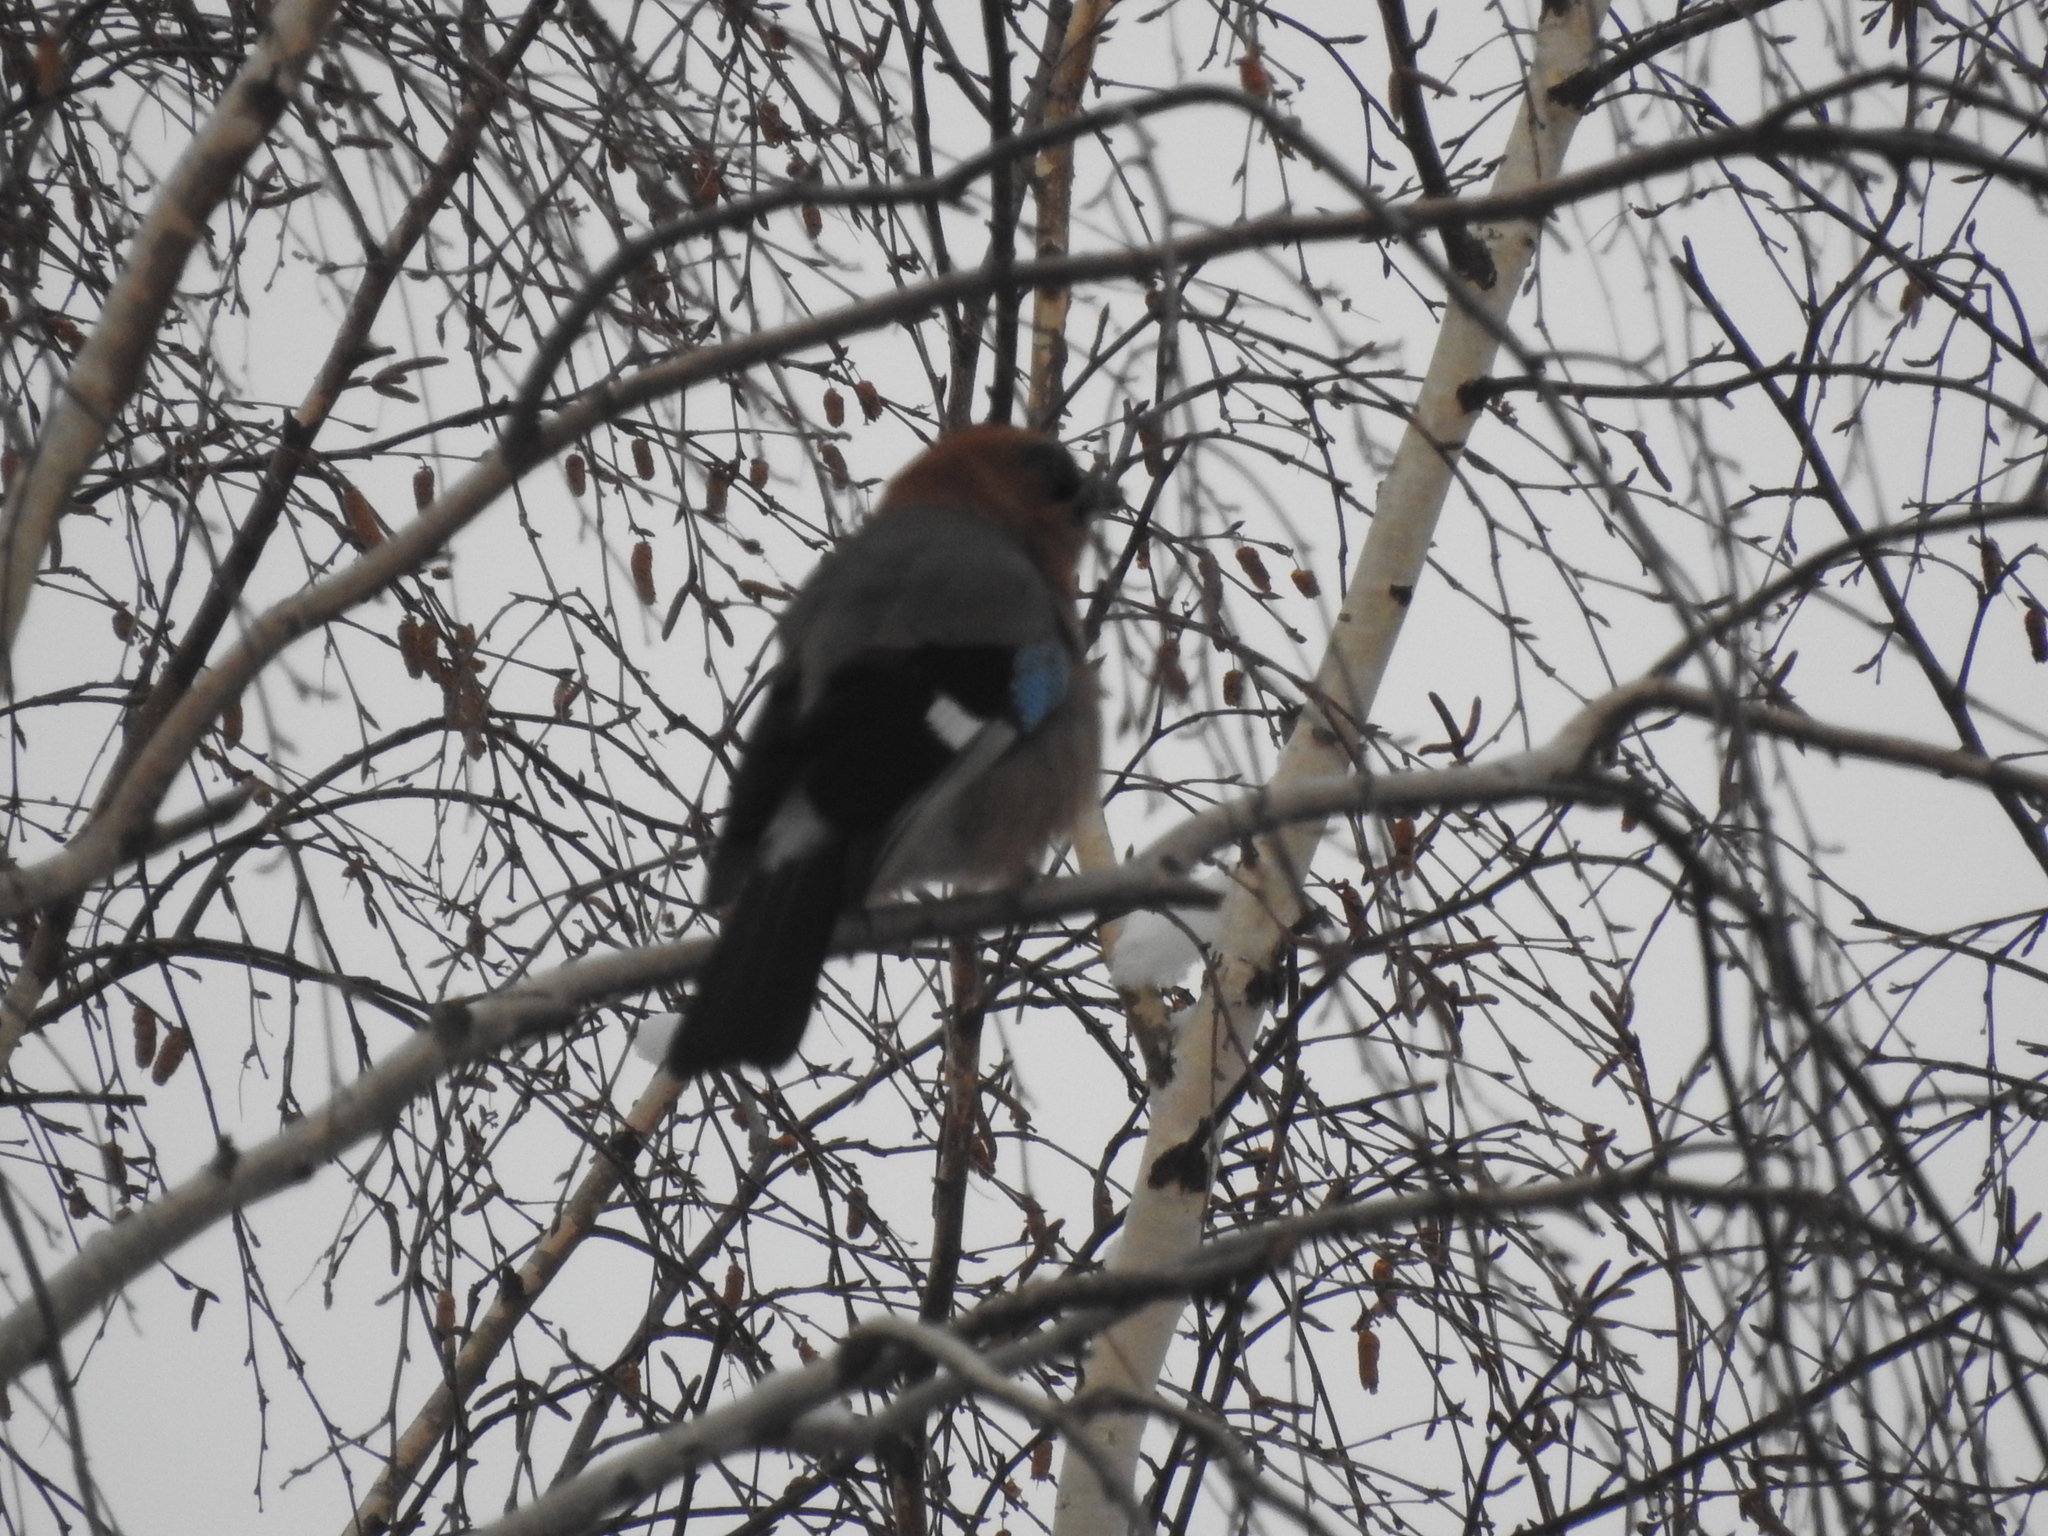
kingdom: Animalia
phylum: Chordata
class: Aves
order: Passeriformes
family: Corvidae
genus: Garrulus
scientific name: Garrulus glandarius
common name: Eurasian jay
